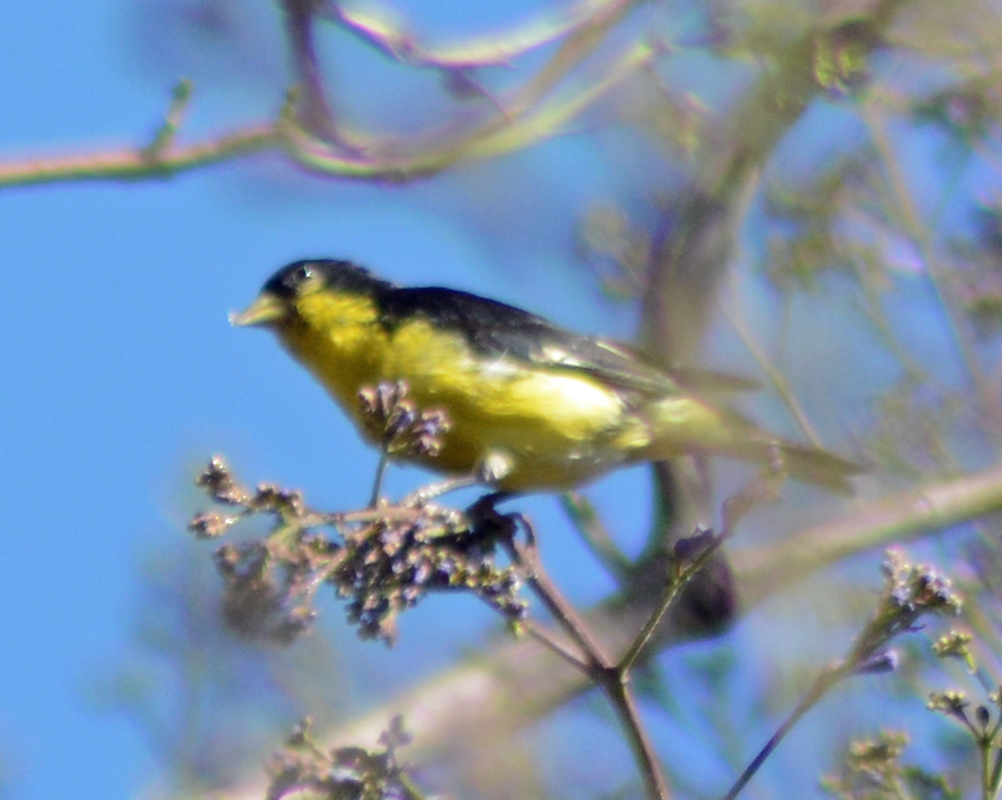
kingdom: Animalia
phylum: Chordata
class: Aves
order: Passeriformes
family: Fringillidae
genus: Spinus
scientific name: Spinus psaltria
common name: Lesser goldfinch
